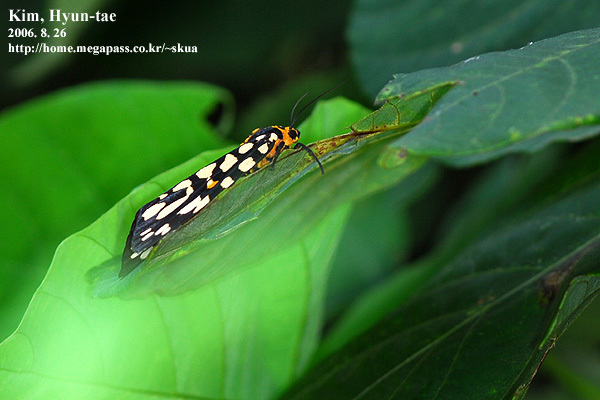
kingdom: Animalia
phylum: Arthropoda
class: Insecta
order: Lepidoptera
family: Erebidae
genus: Aglaomorpha
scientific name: Aglaomorpha histrio
